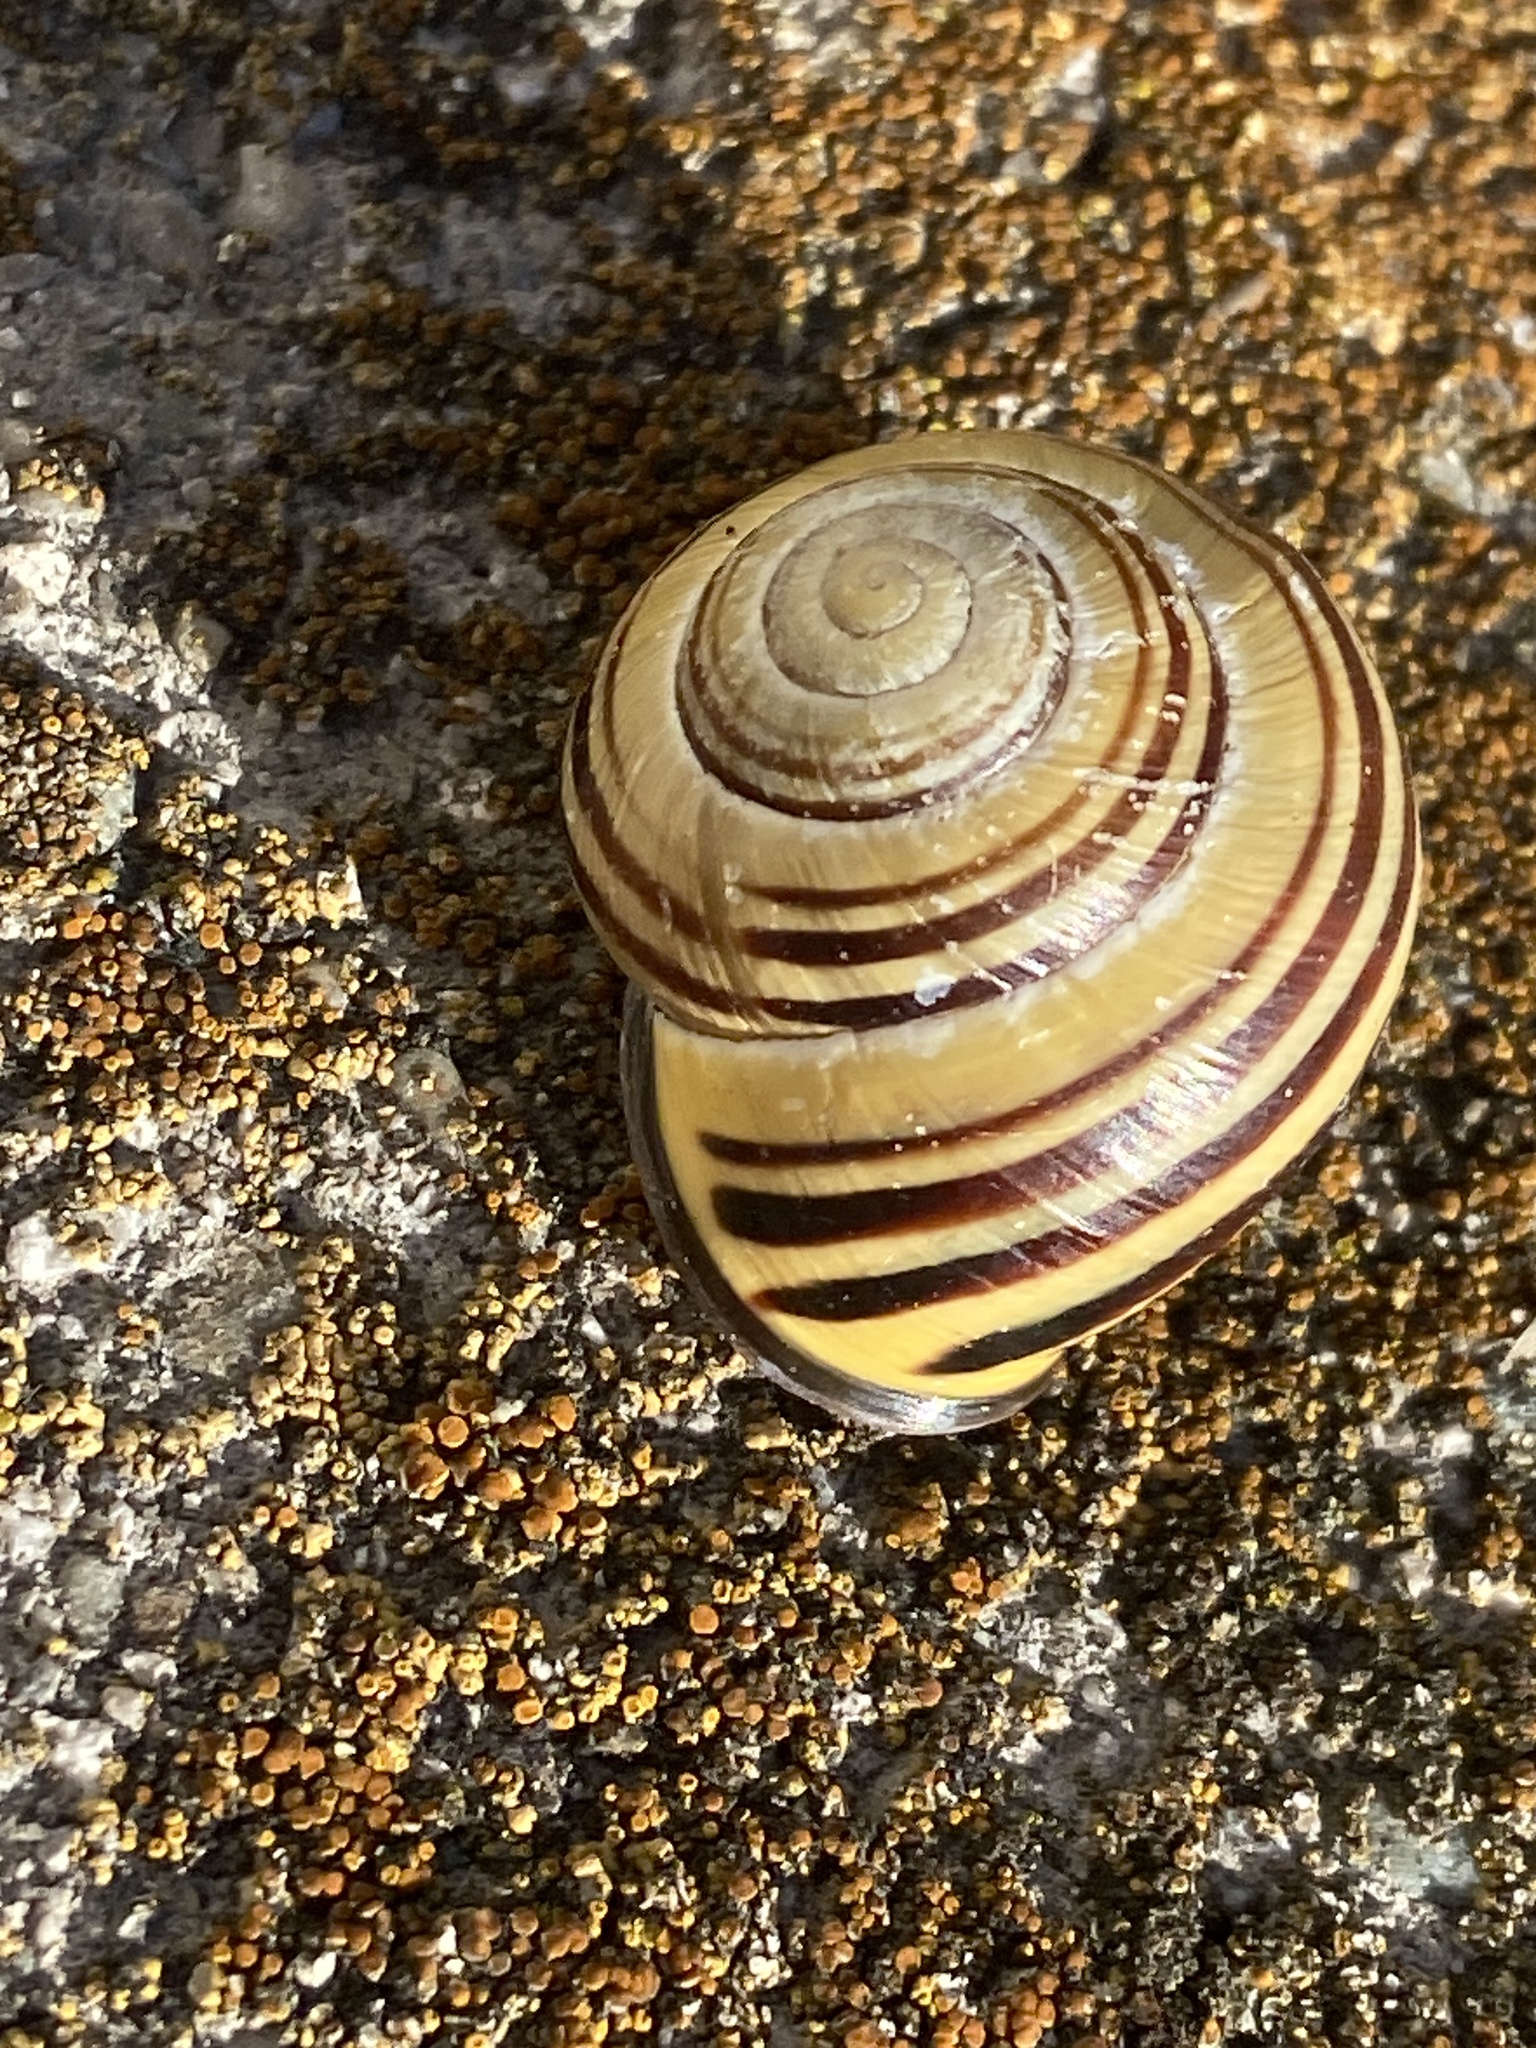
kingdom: Animalia
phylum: Mollusca
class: Gastropoda
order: Stylommatophora
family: Helicidae
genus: Cepaea
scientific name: Cepaea nemoralis
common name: Grovesnail
